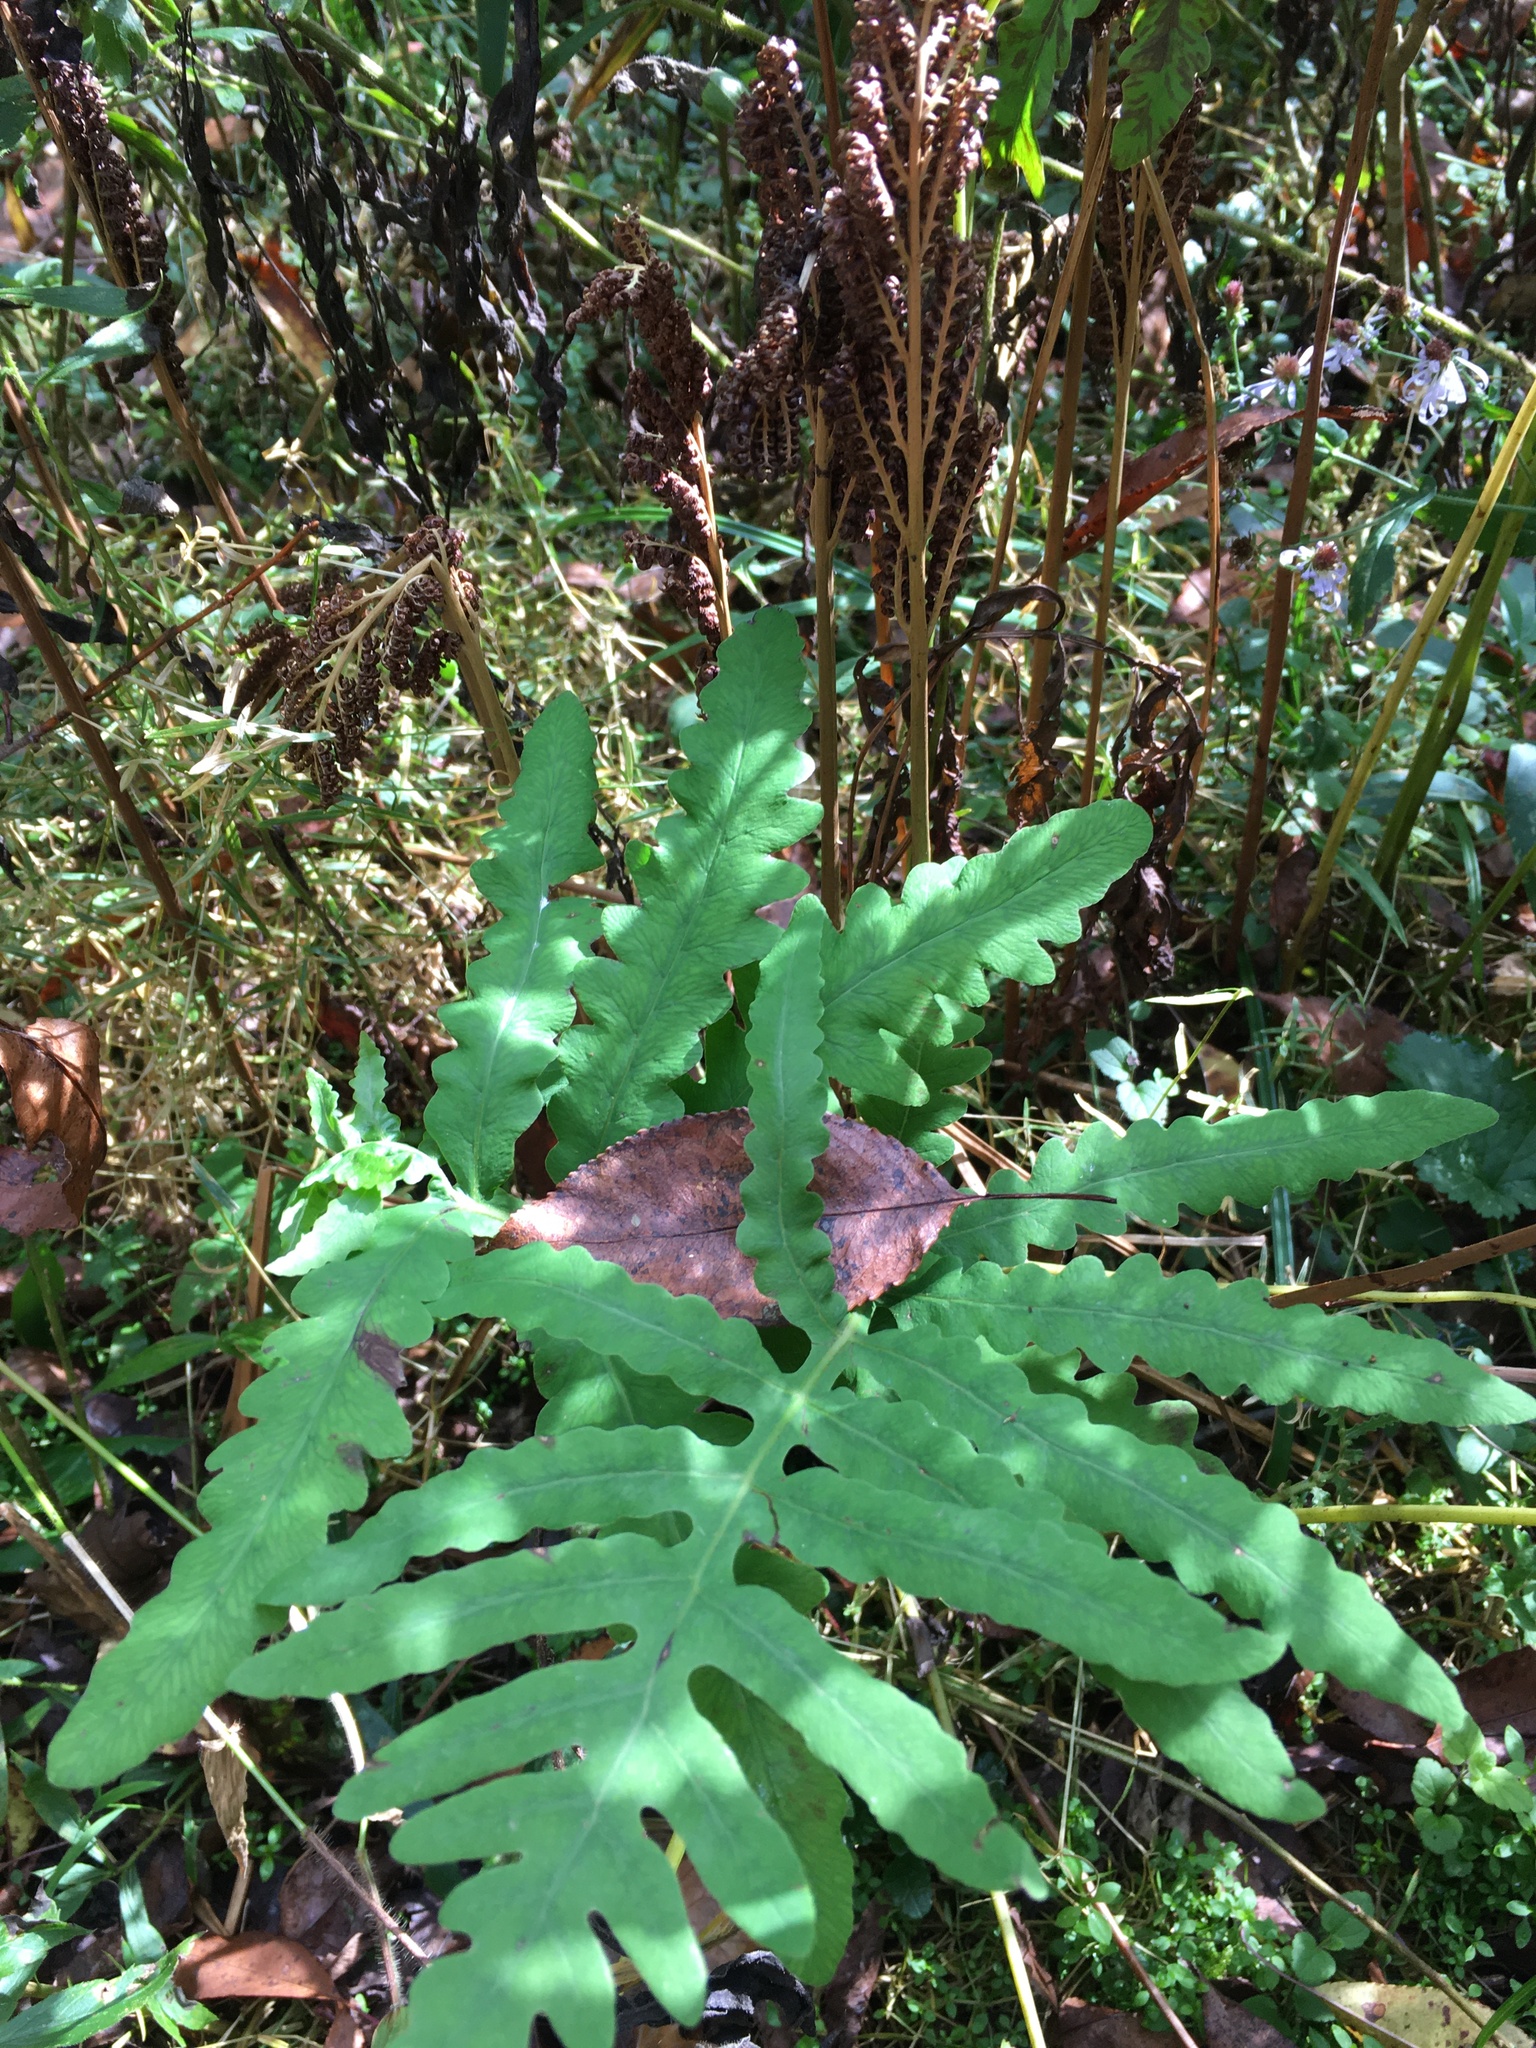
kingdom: Plantae
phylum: Tracheophyta
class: Polypodiopsida
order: Polypodiales
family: Onocleaceae
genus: Onoclea
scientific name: Onoclea sensibilis
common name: Sensitive fern
